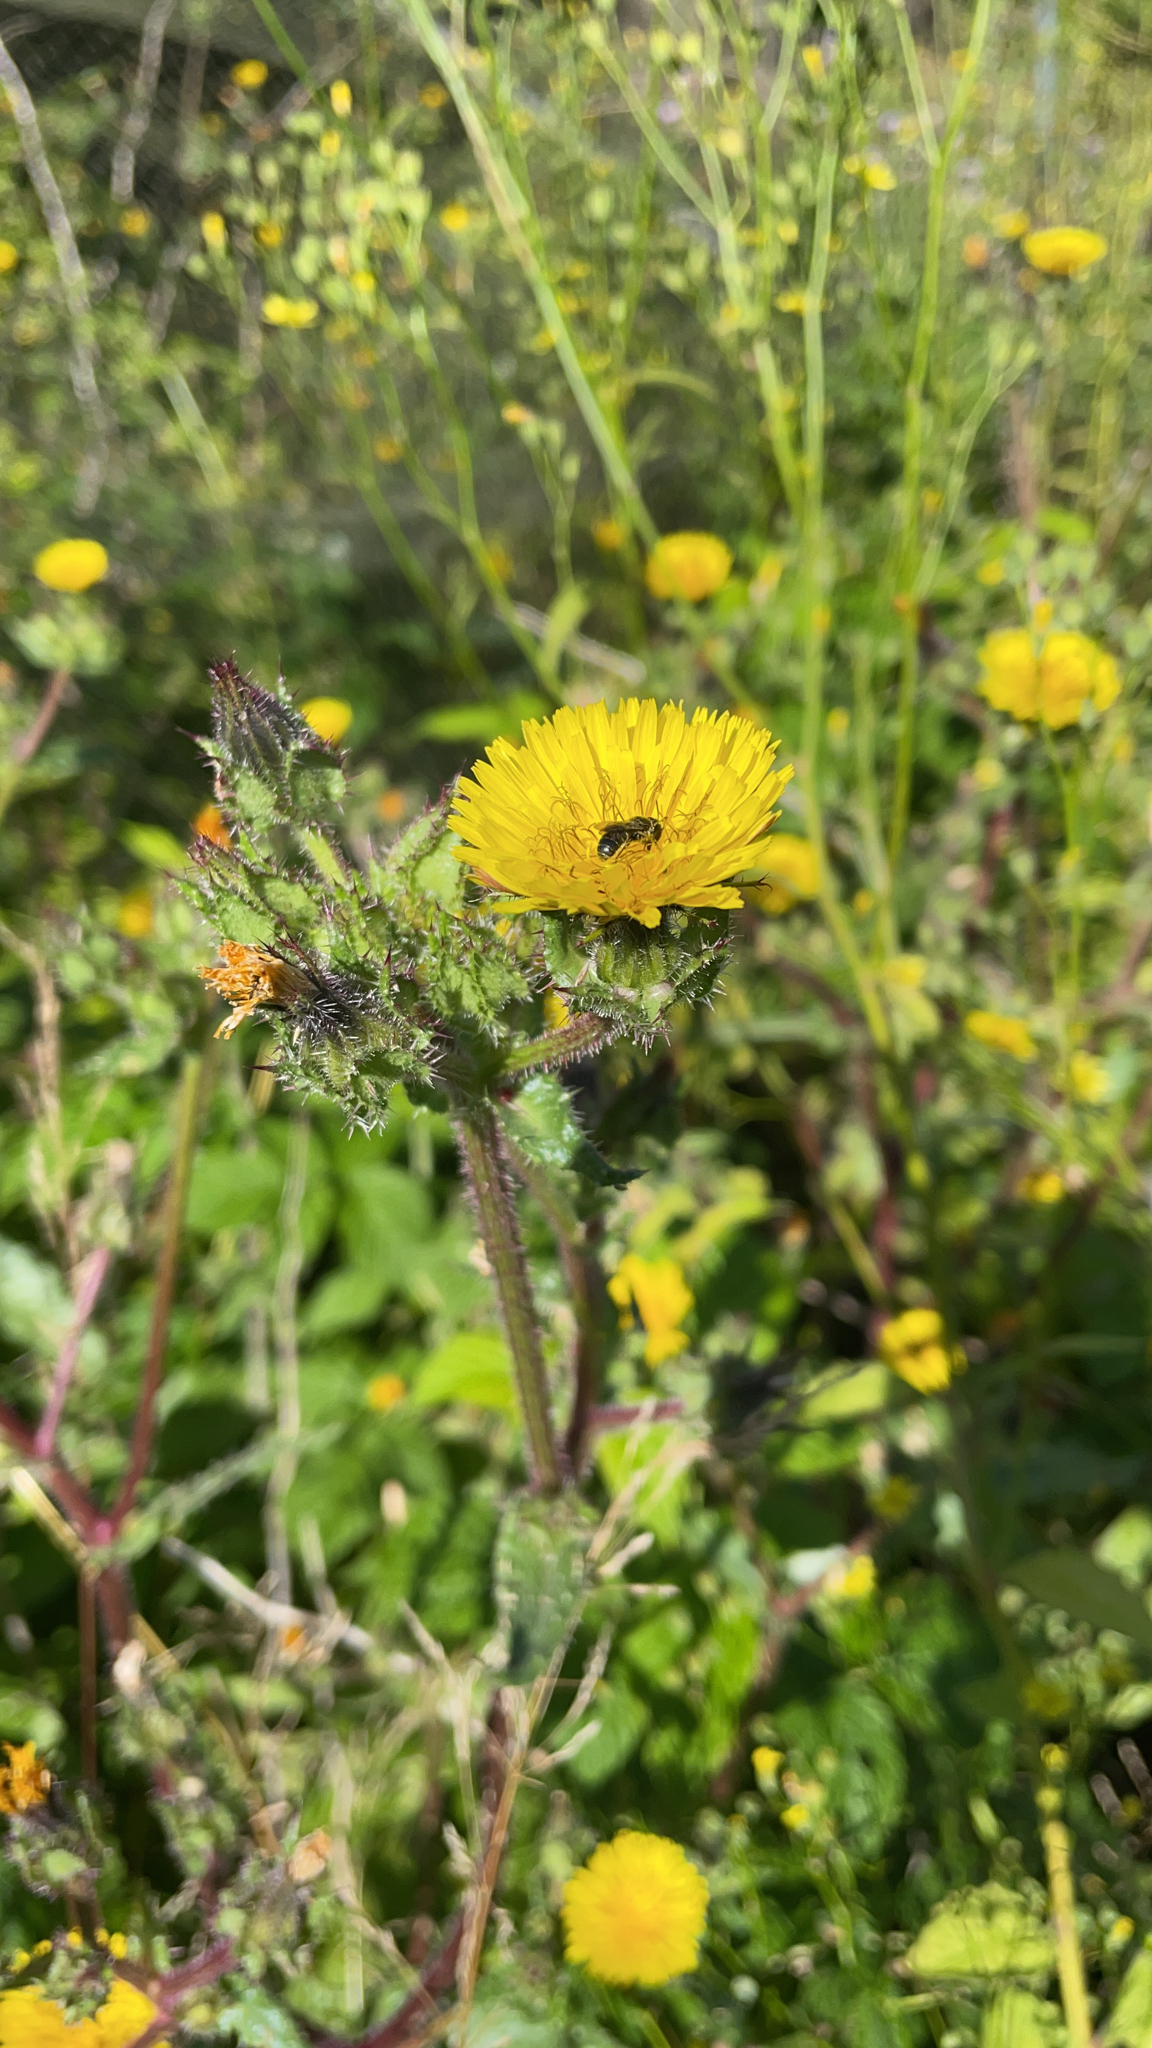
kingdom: Plantae
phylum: Tracheophyta
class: Magnoliopsida
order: Asterales
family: Asteraceae
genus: Helminthotheca
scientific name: Helminthotheca echioides
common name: Ox-tongue
